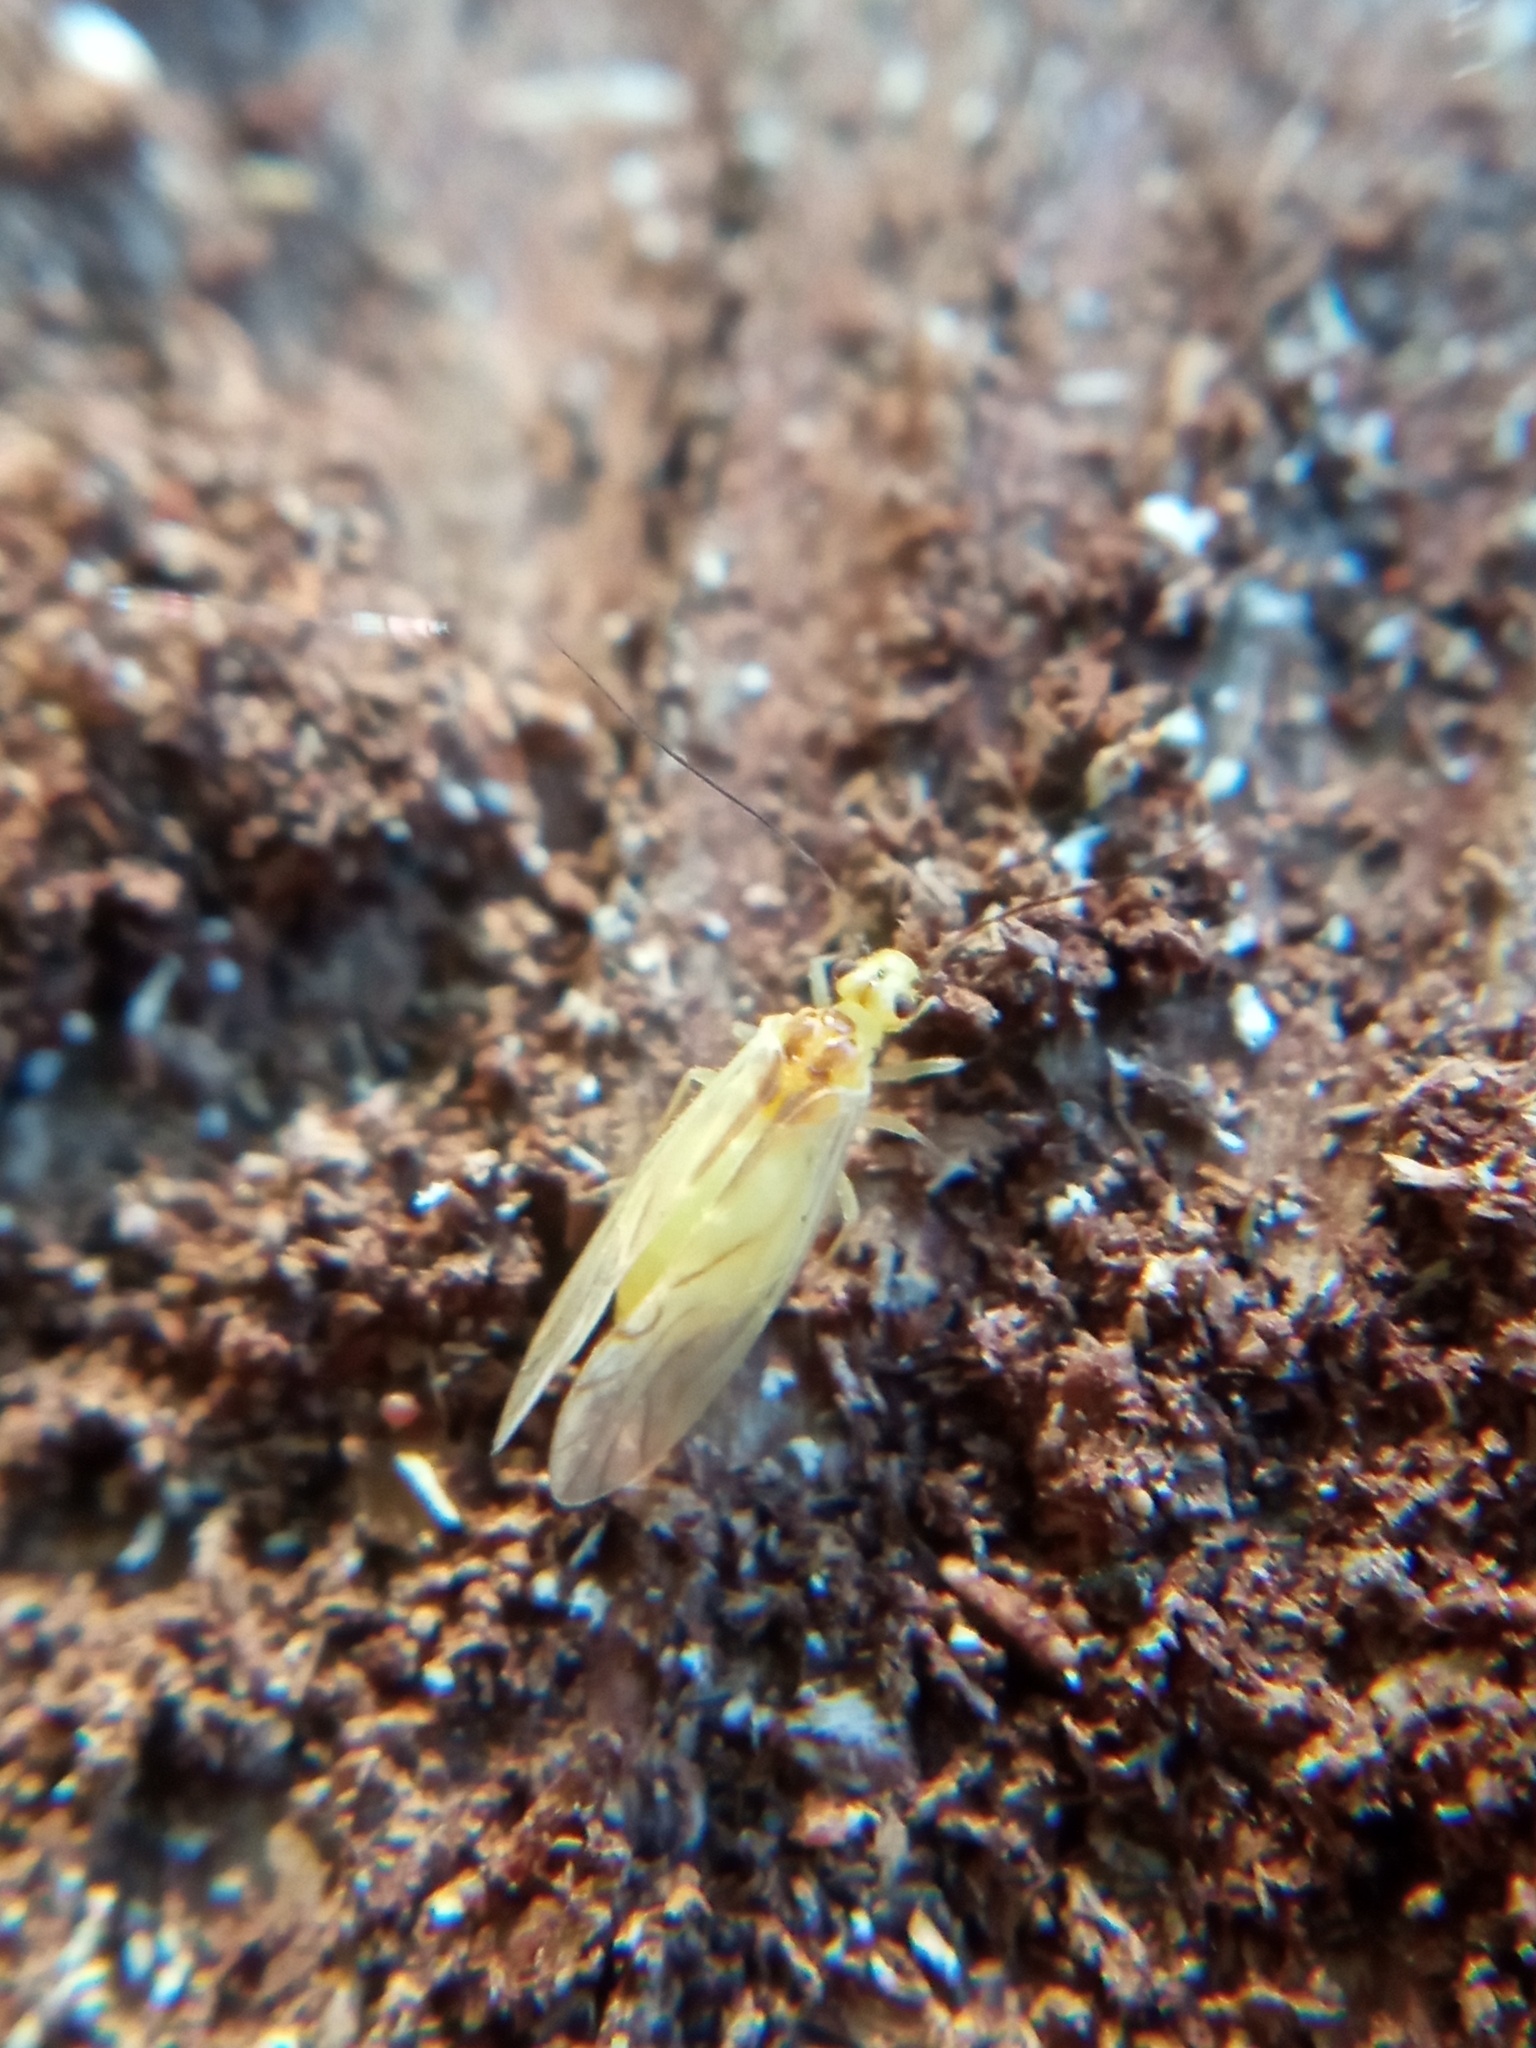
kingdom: Animalia
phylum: Arthropoda
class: Insecta
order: Psocodea
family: Caeciliusidae
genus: Valenzuela
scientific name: Valenzuela flavidus
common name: Yellow barklouse
